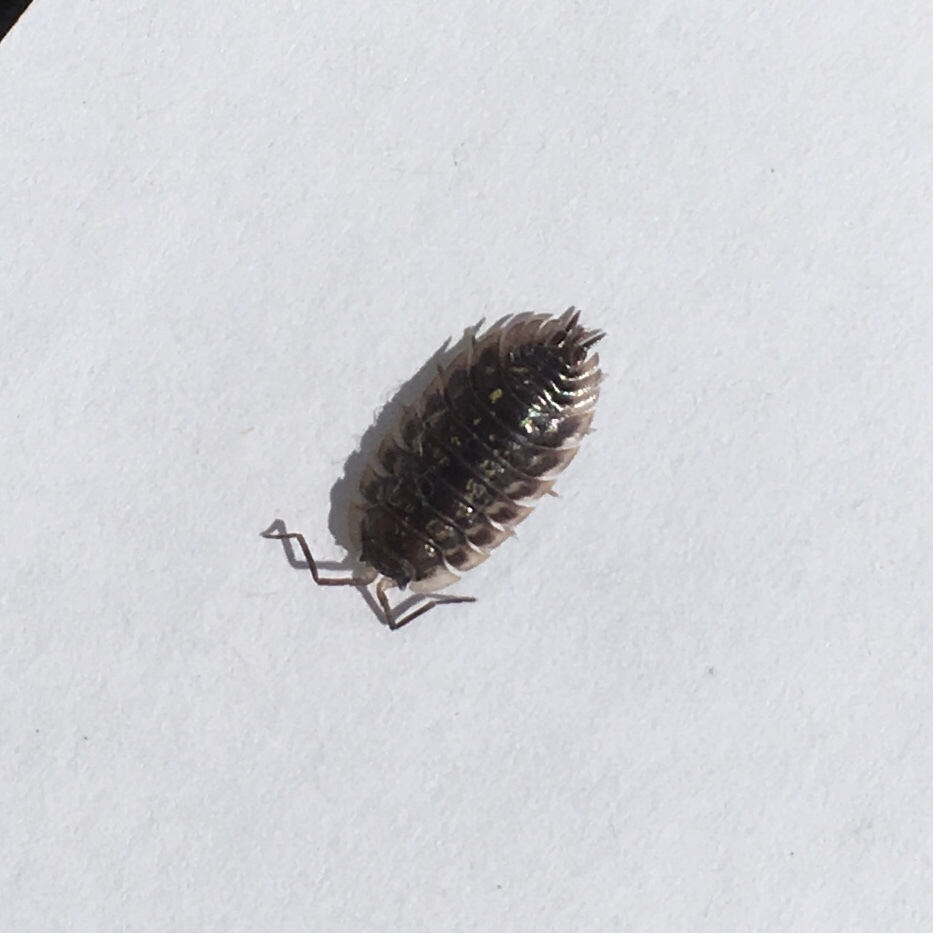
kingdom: Animalia
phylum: Arthropoda
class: Malacostraca
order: Isopoda
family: Oniscidae
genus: Oniscus
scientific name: Oniscus asellus
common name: Common shiny woodlouse
